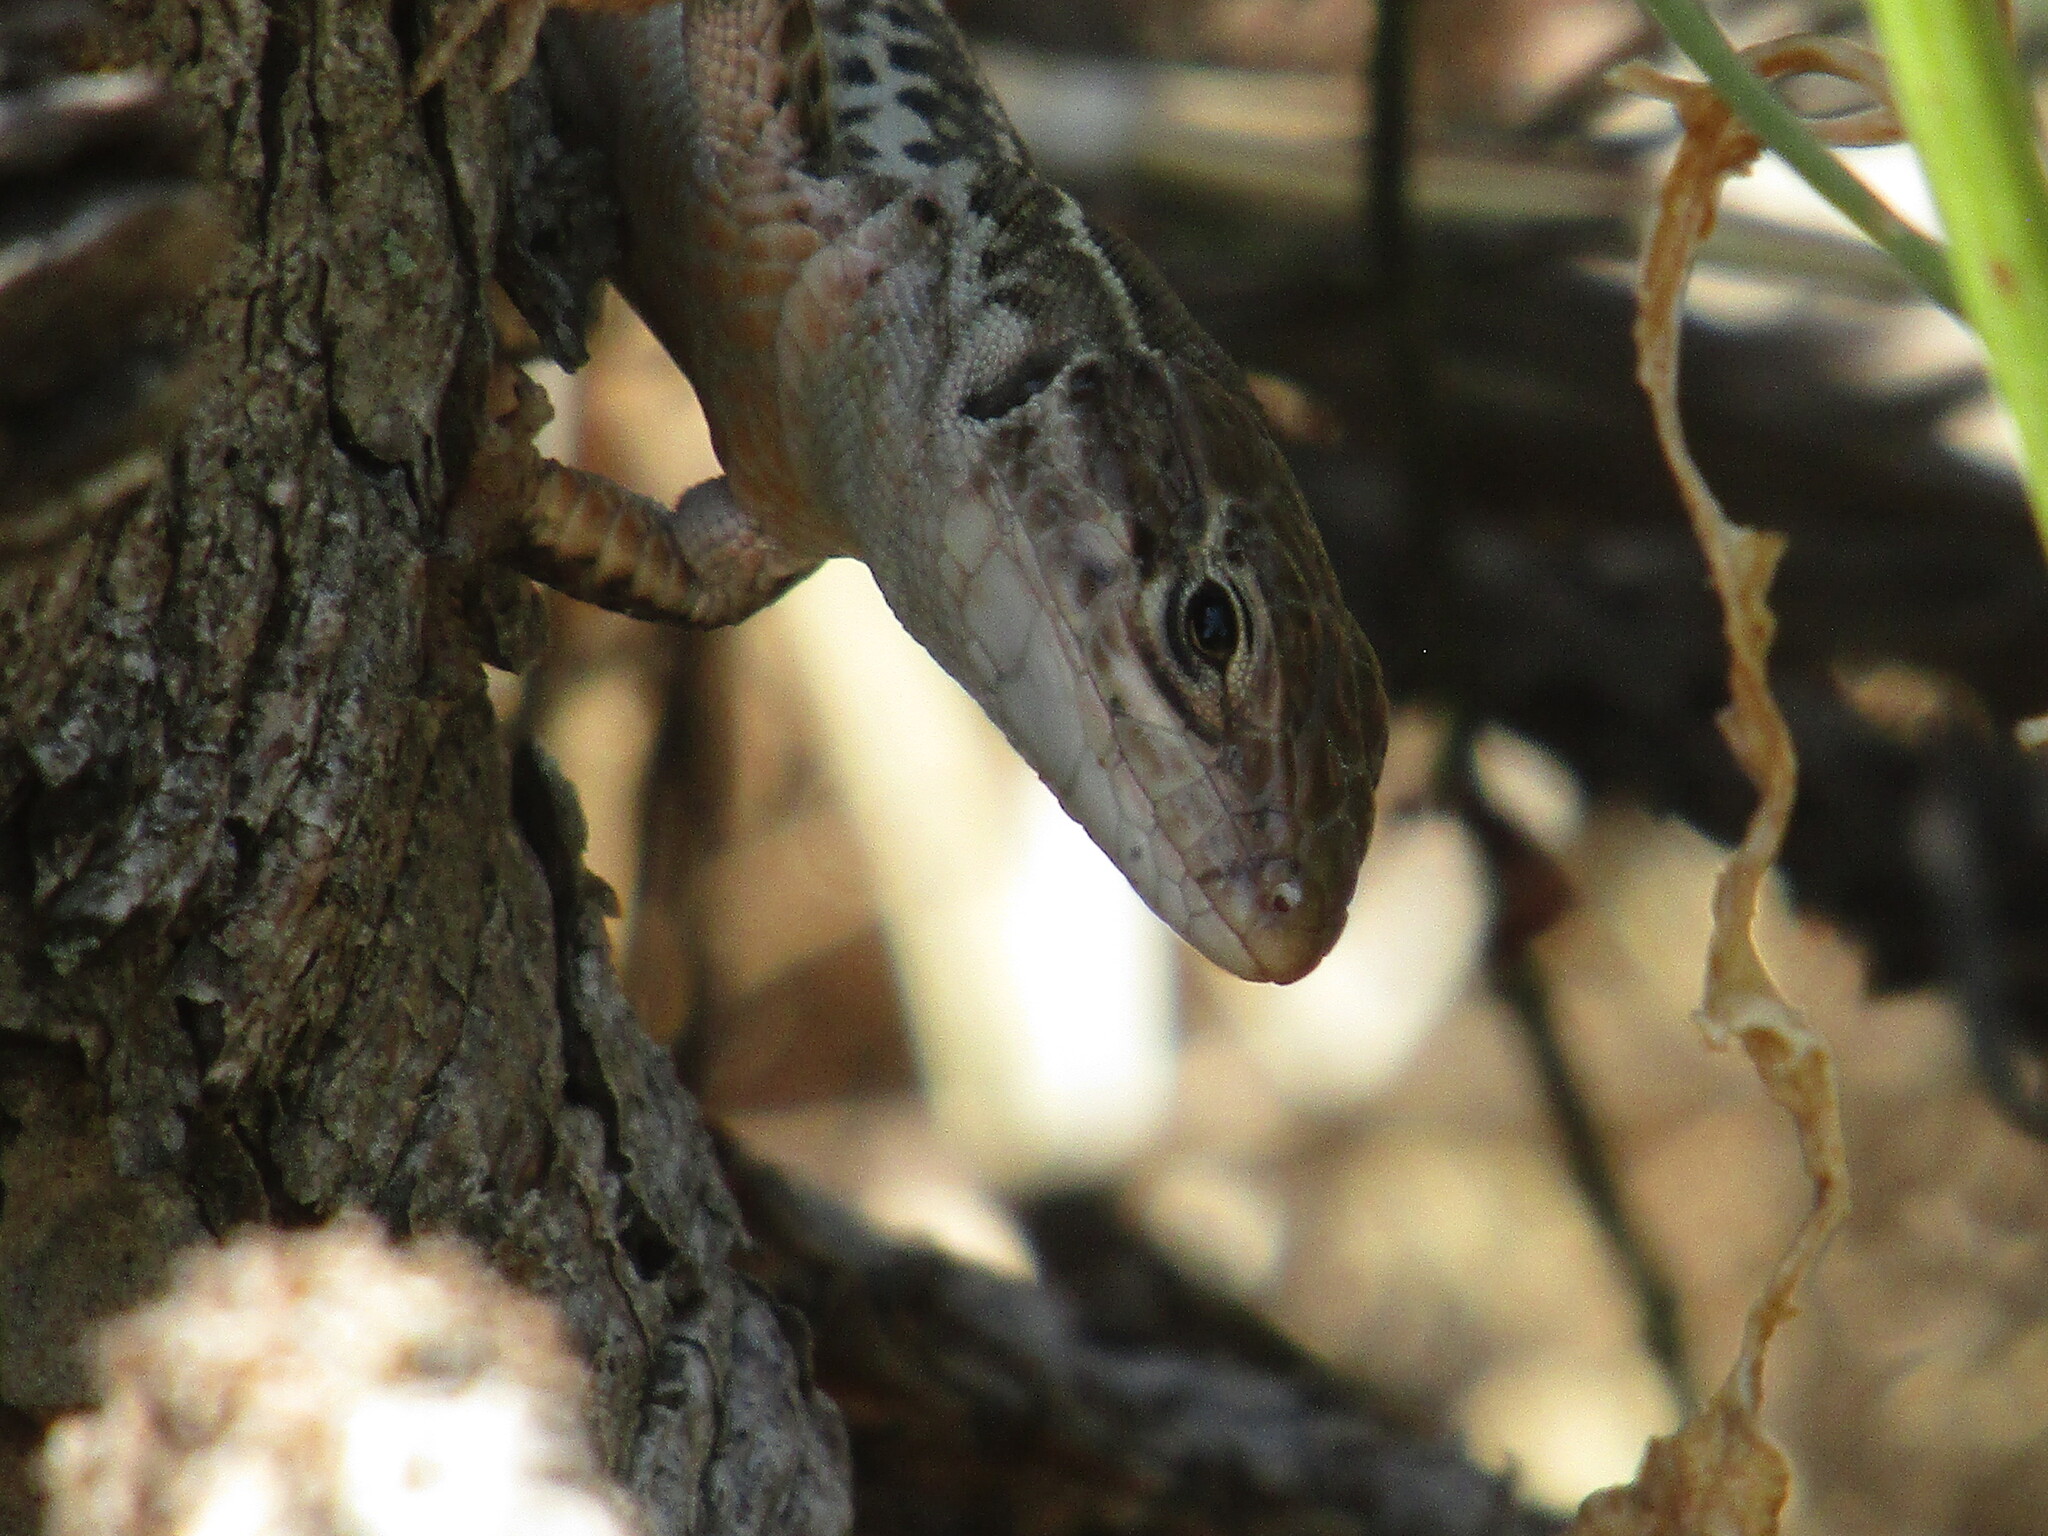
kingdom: Animalia
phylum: Chordata
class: Squamata
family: Lacertidae
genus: Podarcis
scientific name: Podarcis
